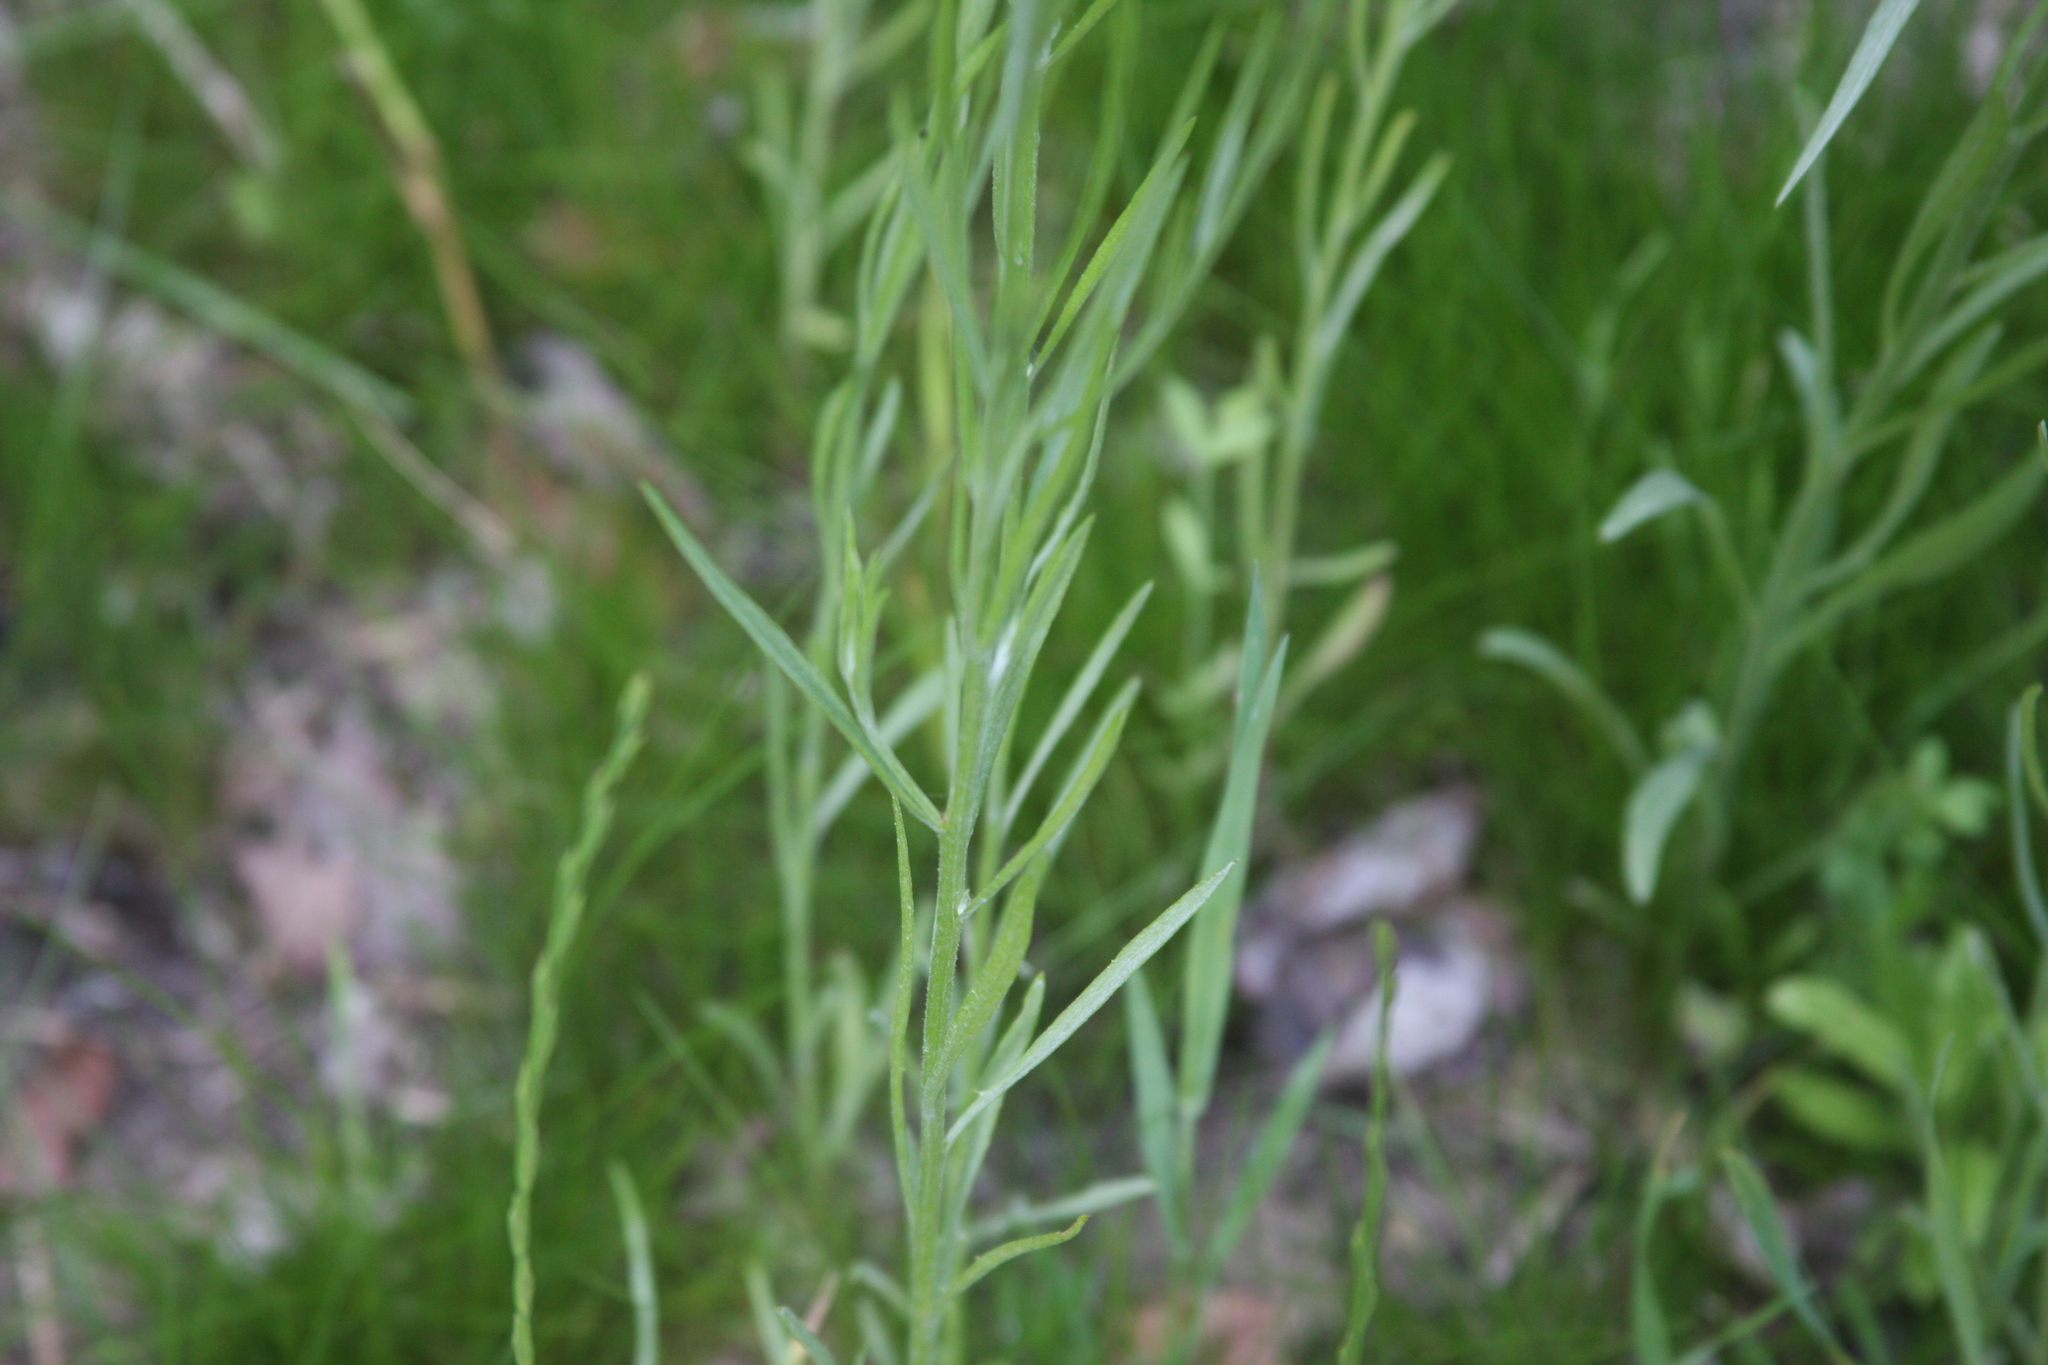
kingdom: Plantae
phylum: Tracheophyta
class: Magnoliopsida
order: Asterales
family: Asteraceae
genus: Centaurea
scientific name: Centaurea cyanus
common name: Cornflower
